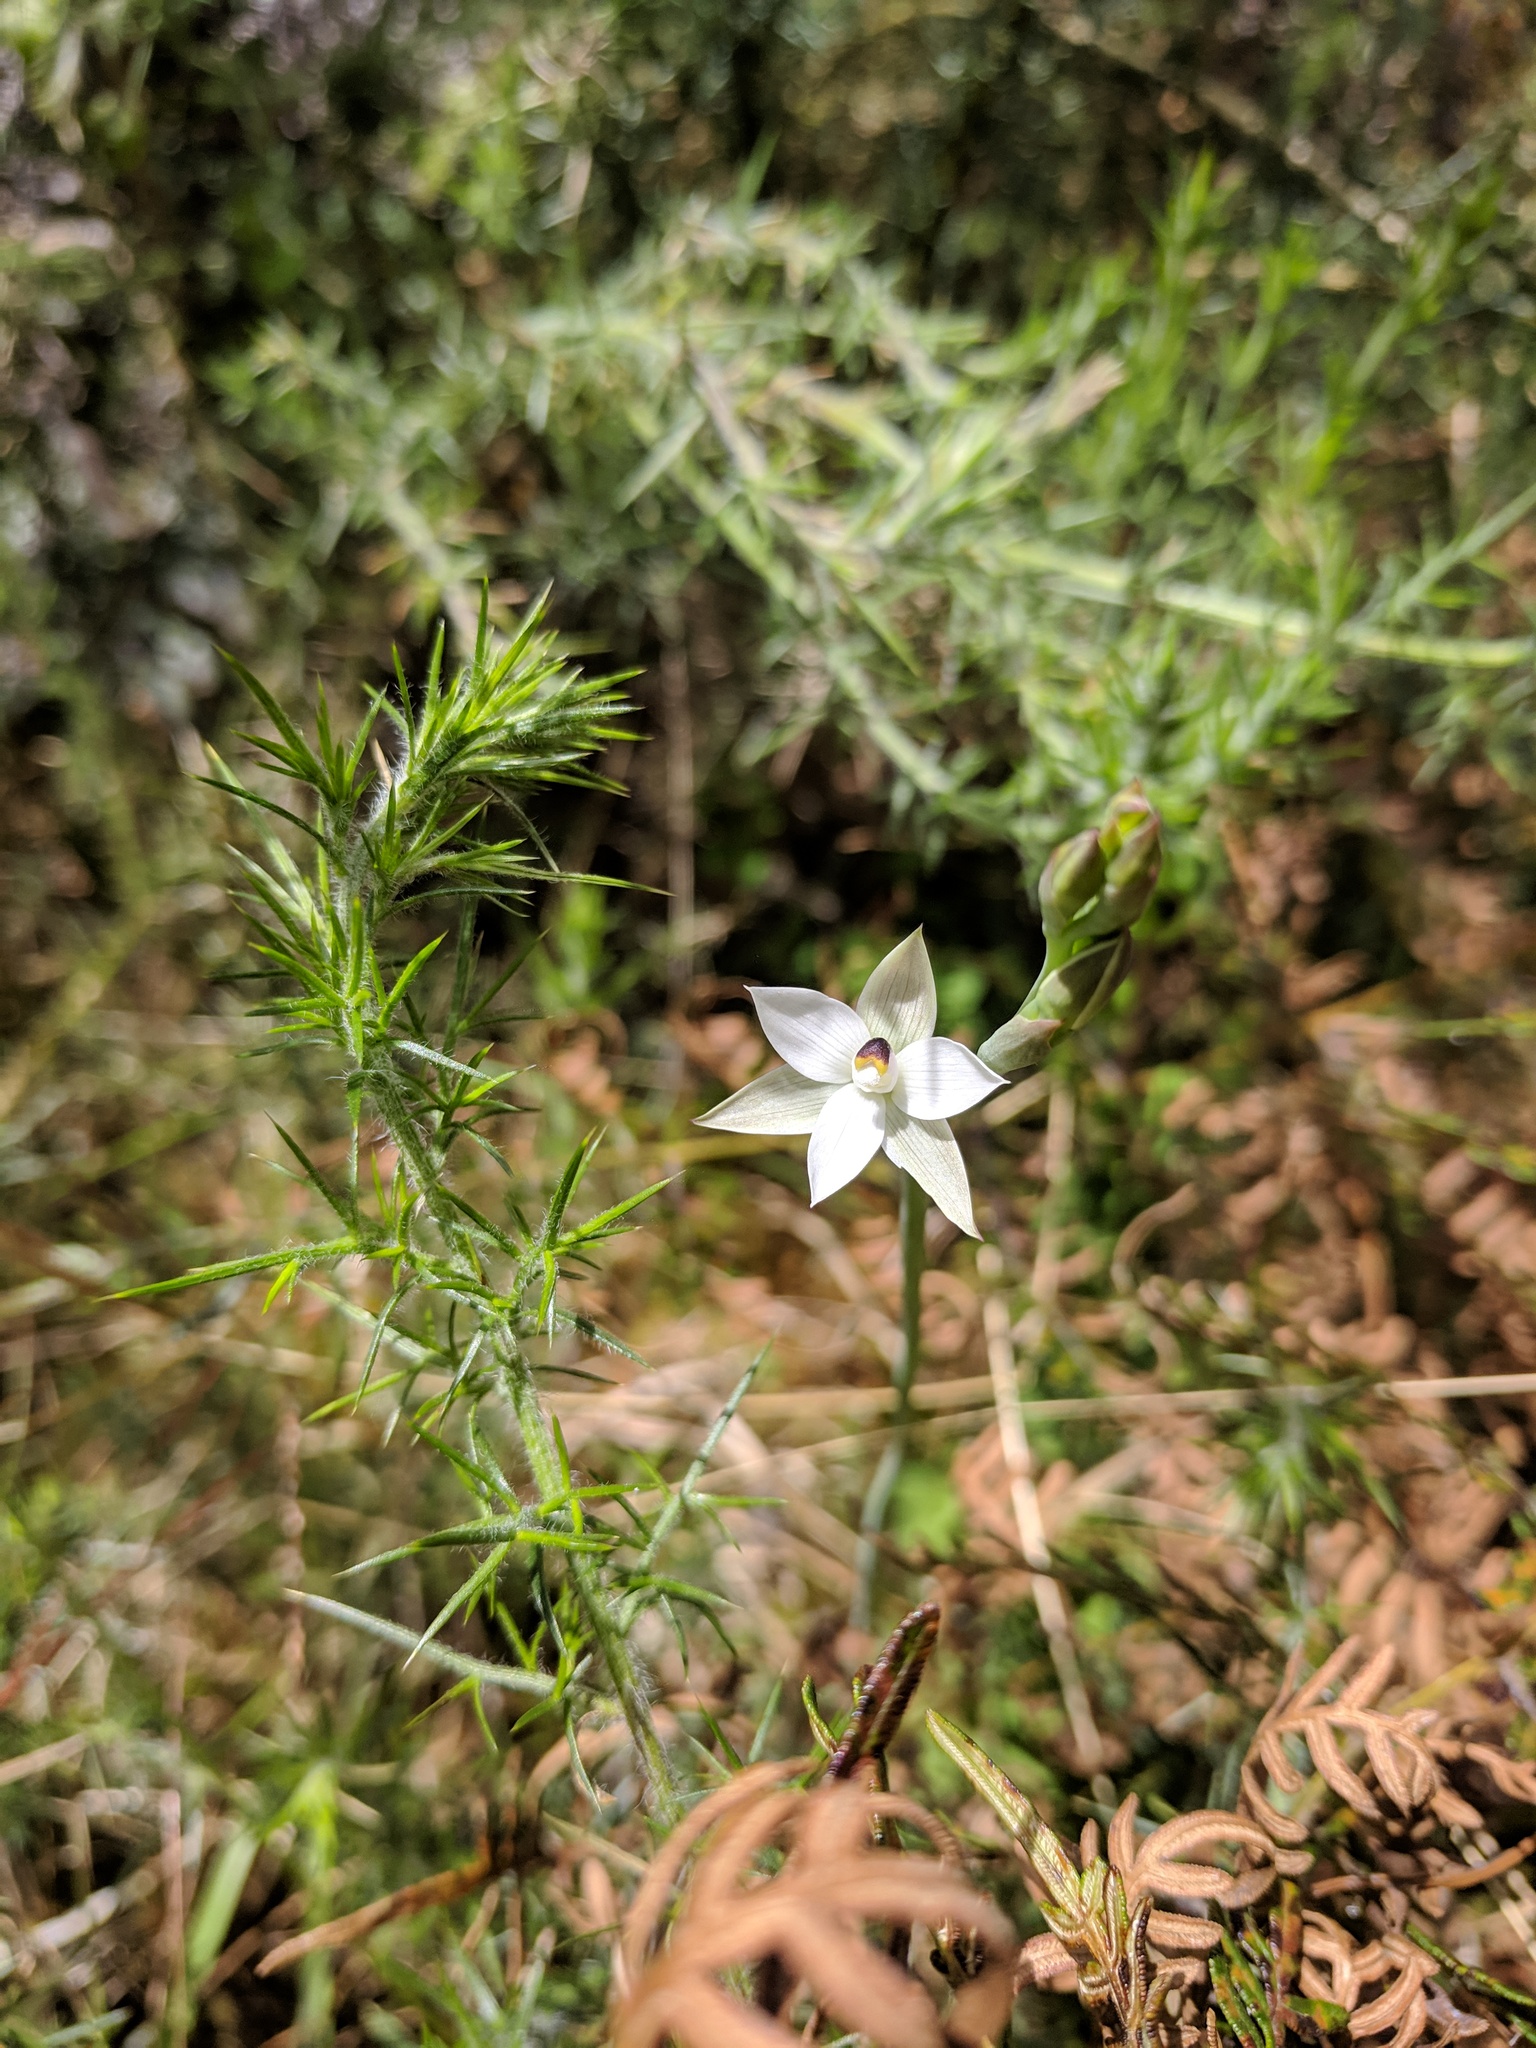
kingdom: Plantae
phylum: Tracheophyta
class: Liliopsida
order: Asparagales
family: Orchidaceae
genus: Thelymitra
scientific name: Thelymitra longifolia
